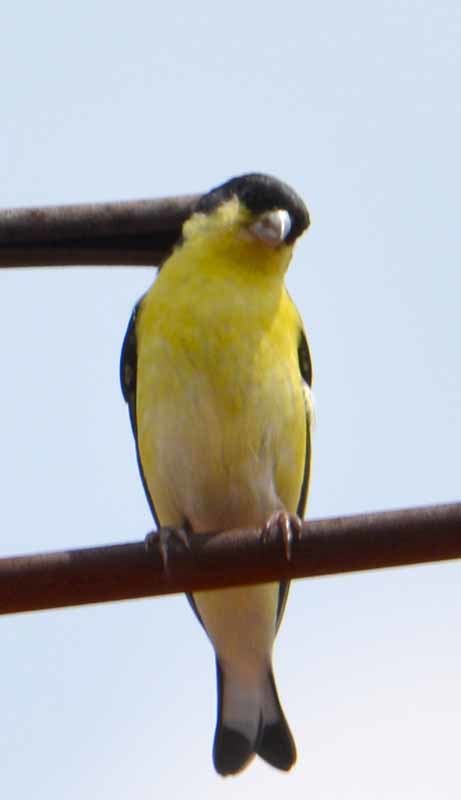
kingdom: Animalia
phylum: Chordata
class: Aves
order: Passeriformes
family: Fringillidae
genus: Spinus
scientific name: Spinus psaltria
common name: Lesser goldfinch
